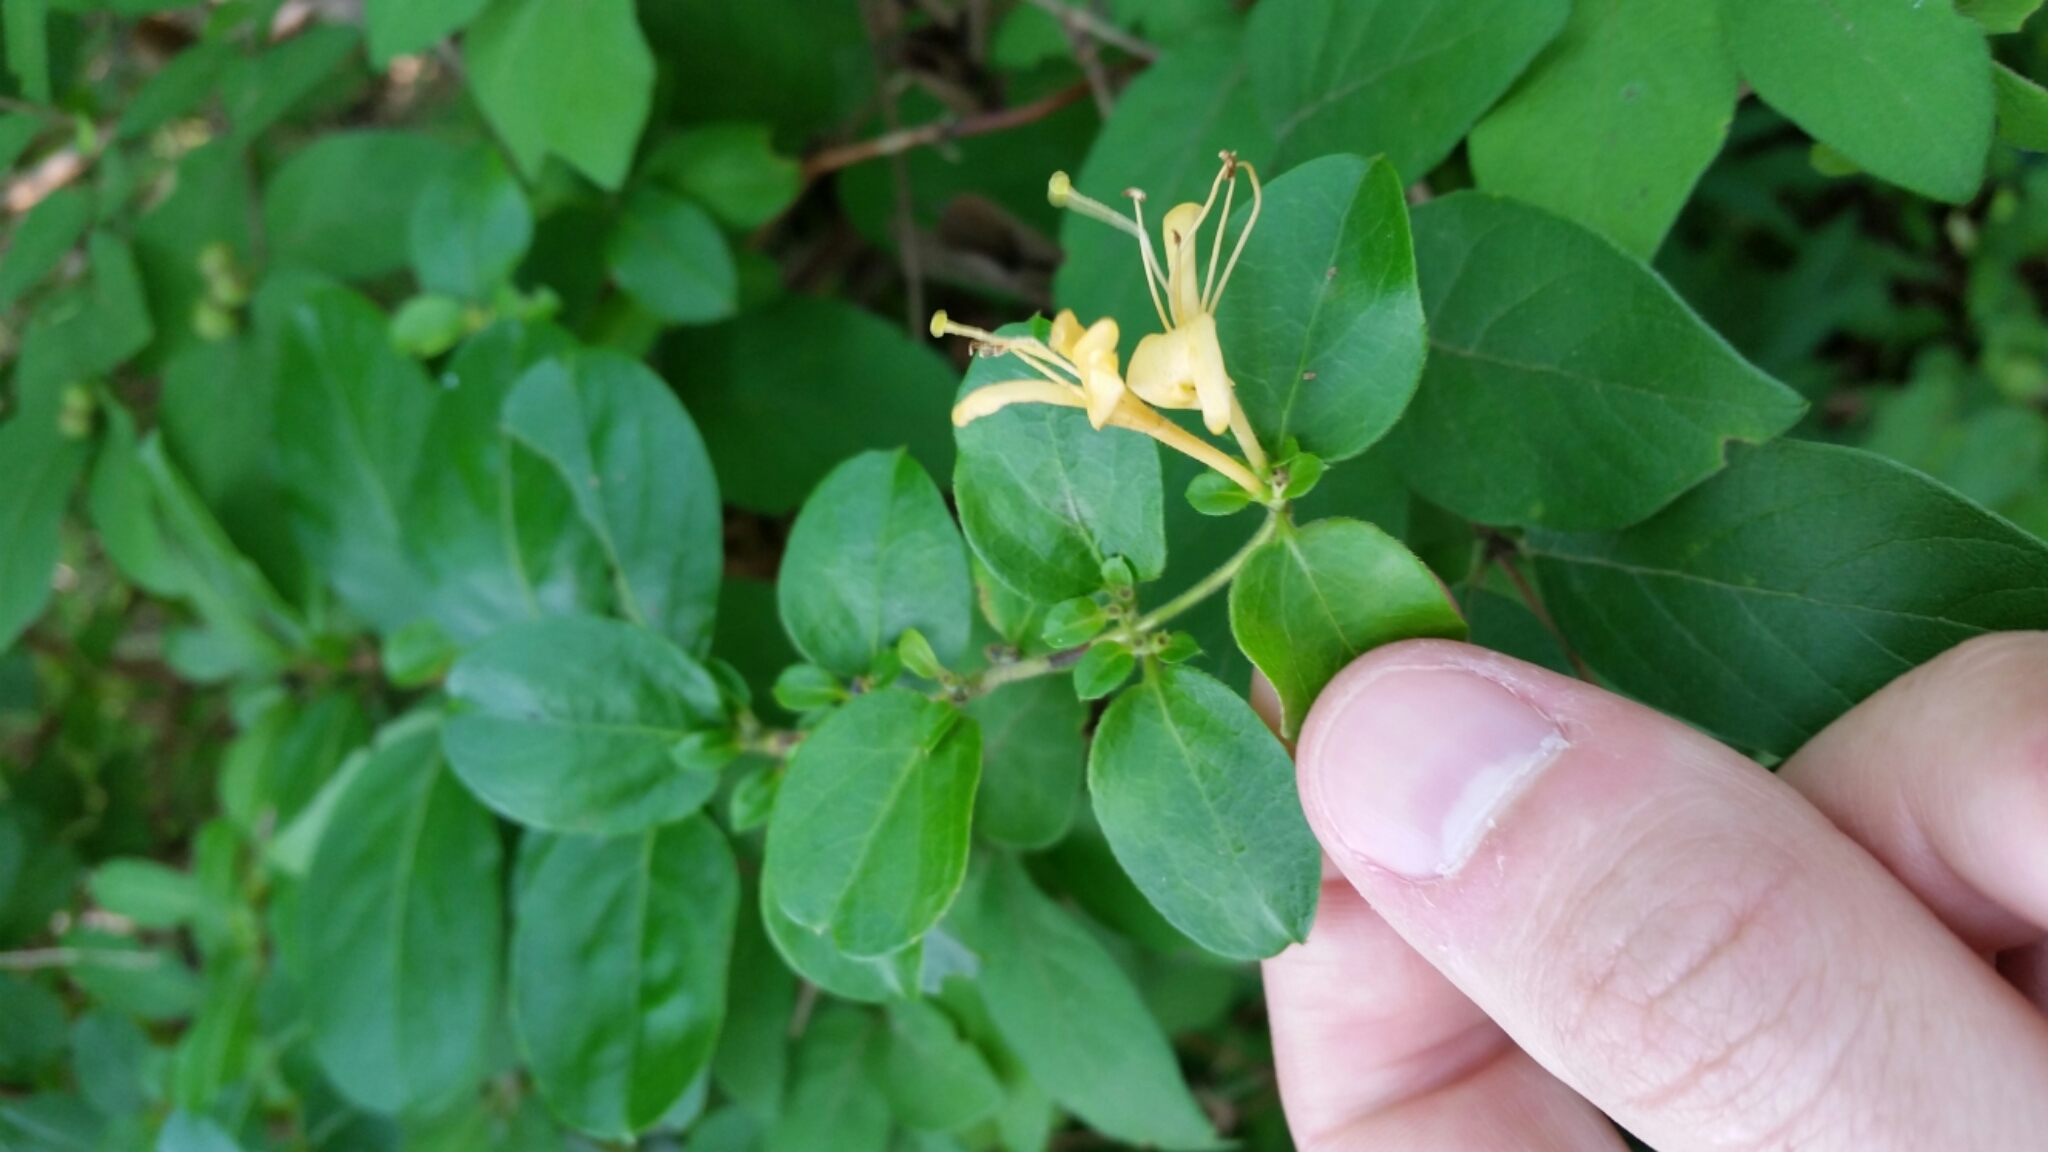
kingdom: Plantae
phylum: Tracheophyta
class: Magnoliopsida
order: Dipsacales
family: Caprifoliaceae
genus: Lonicera
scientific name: Lonicera japonica
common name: Japanese honeysuckle
